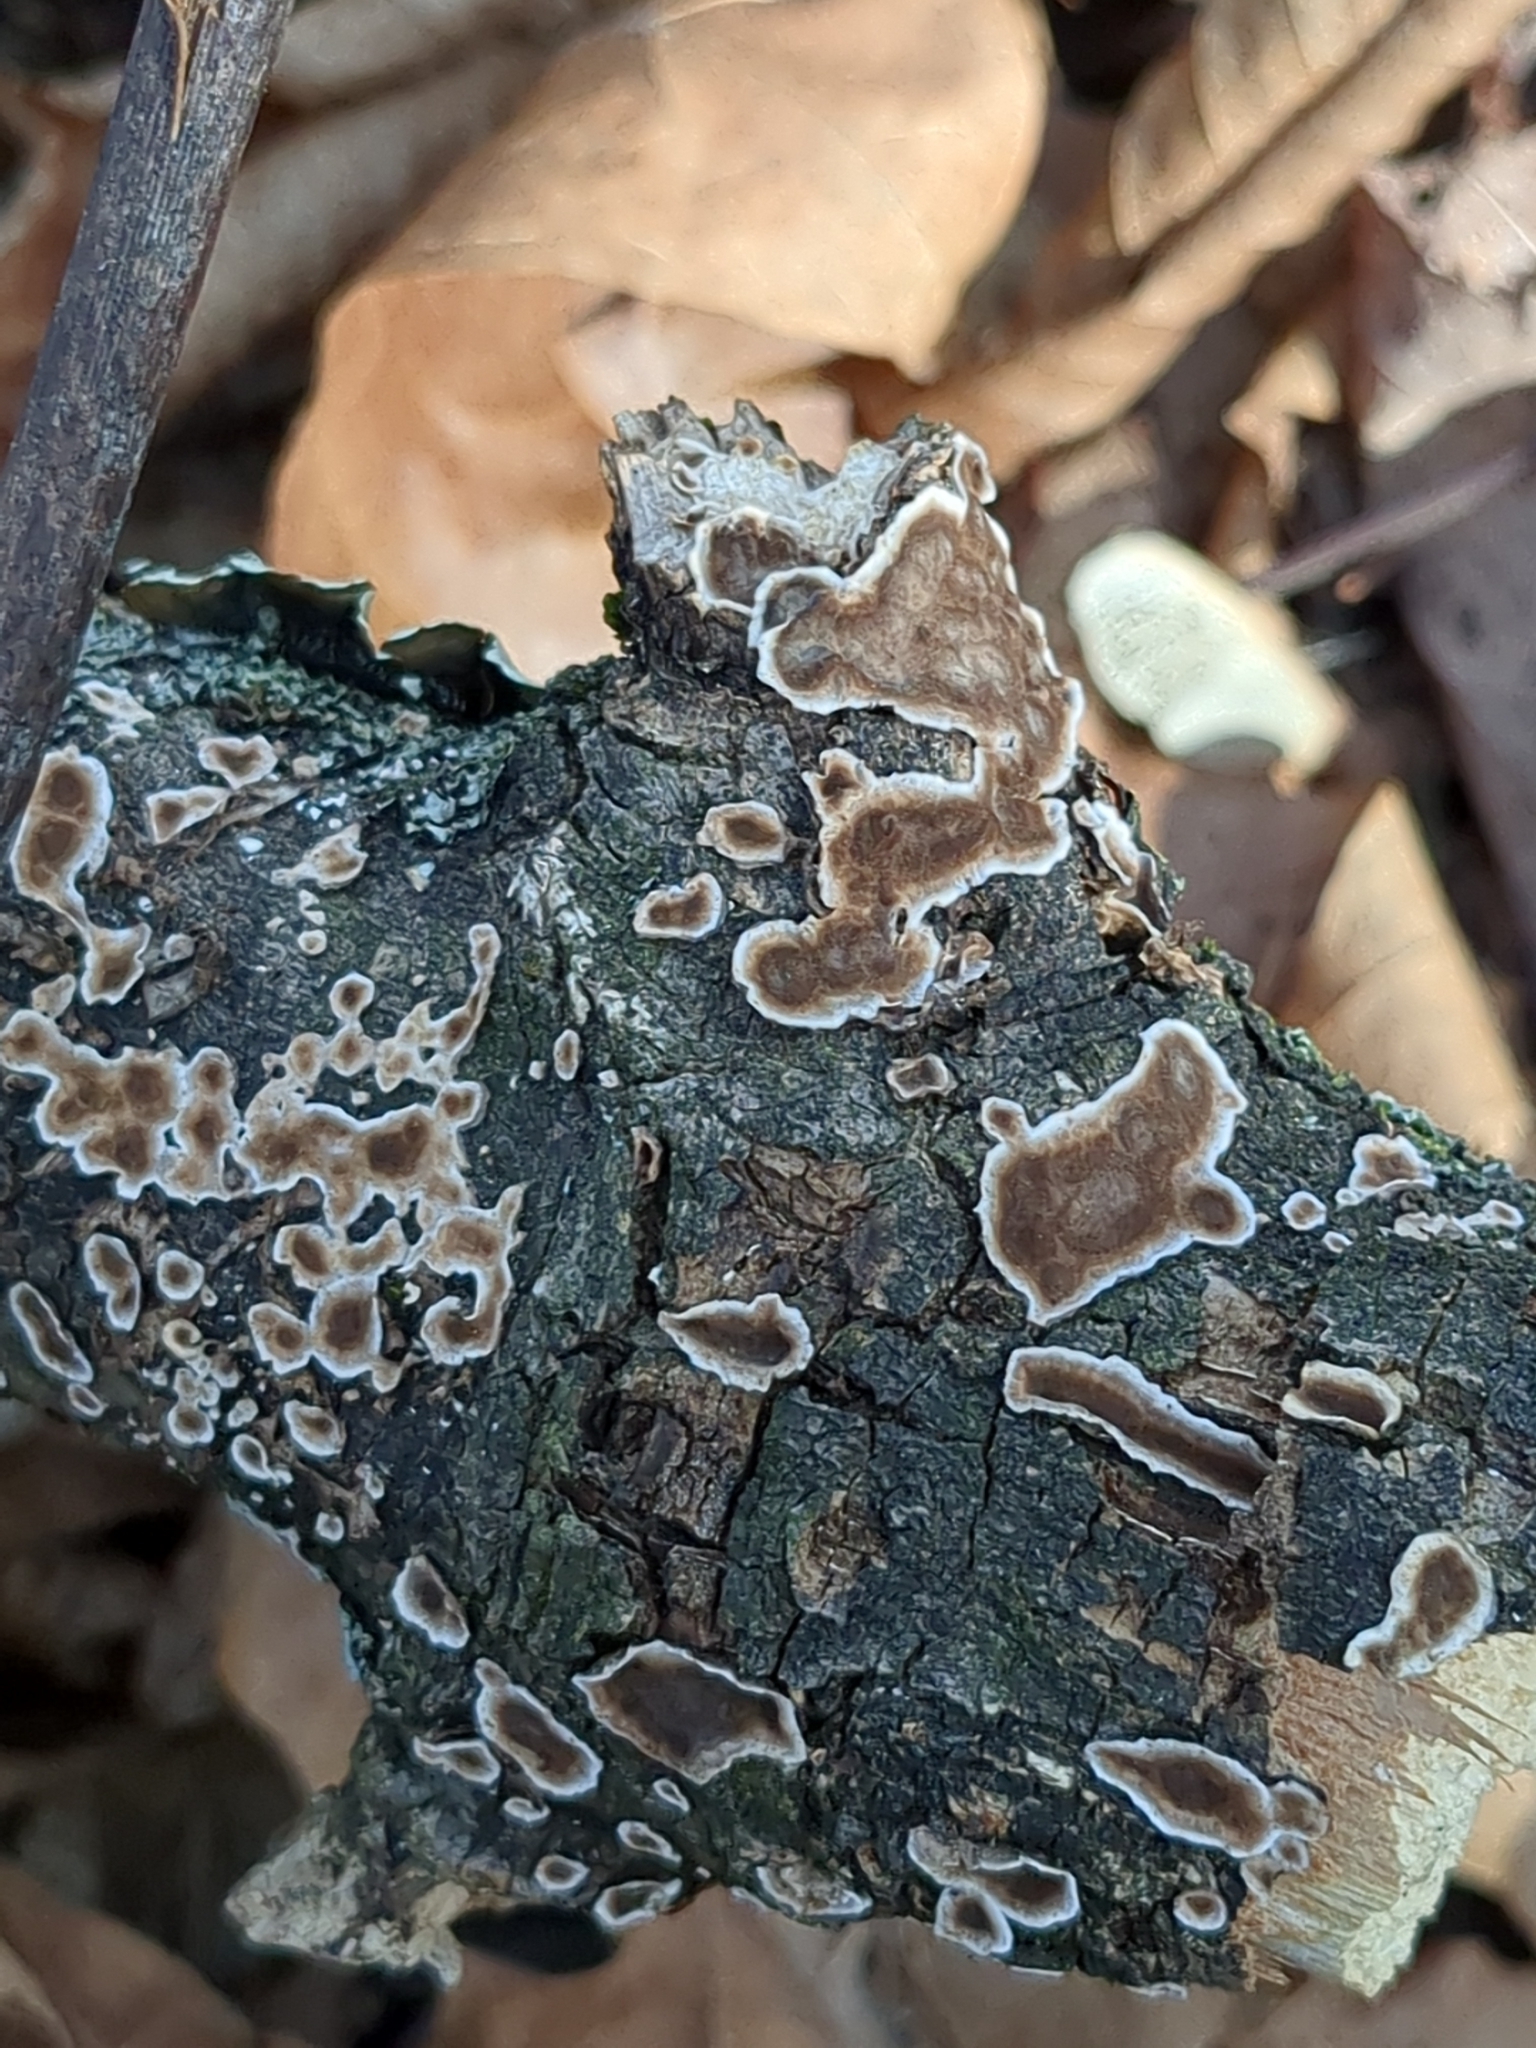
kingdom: Fungi
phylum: Basidiomycota
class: Agaricomycetes
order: Russulales
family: Peniophoraceae
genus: Peniophora
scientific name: Peniophora albobadia
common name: Giraffe spots
